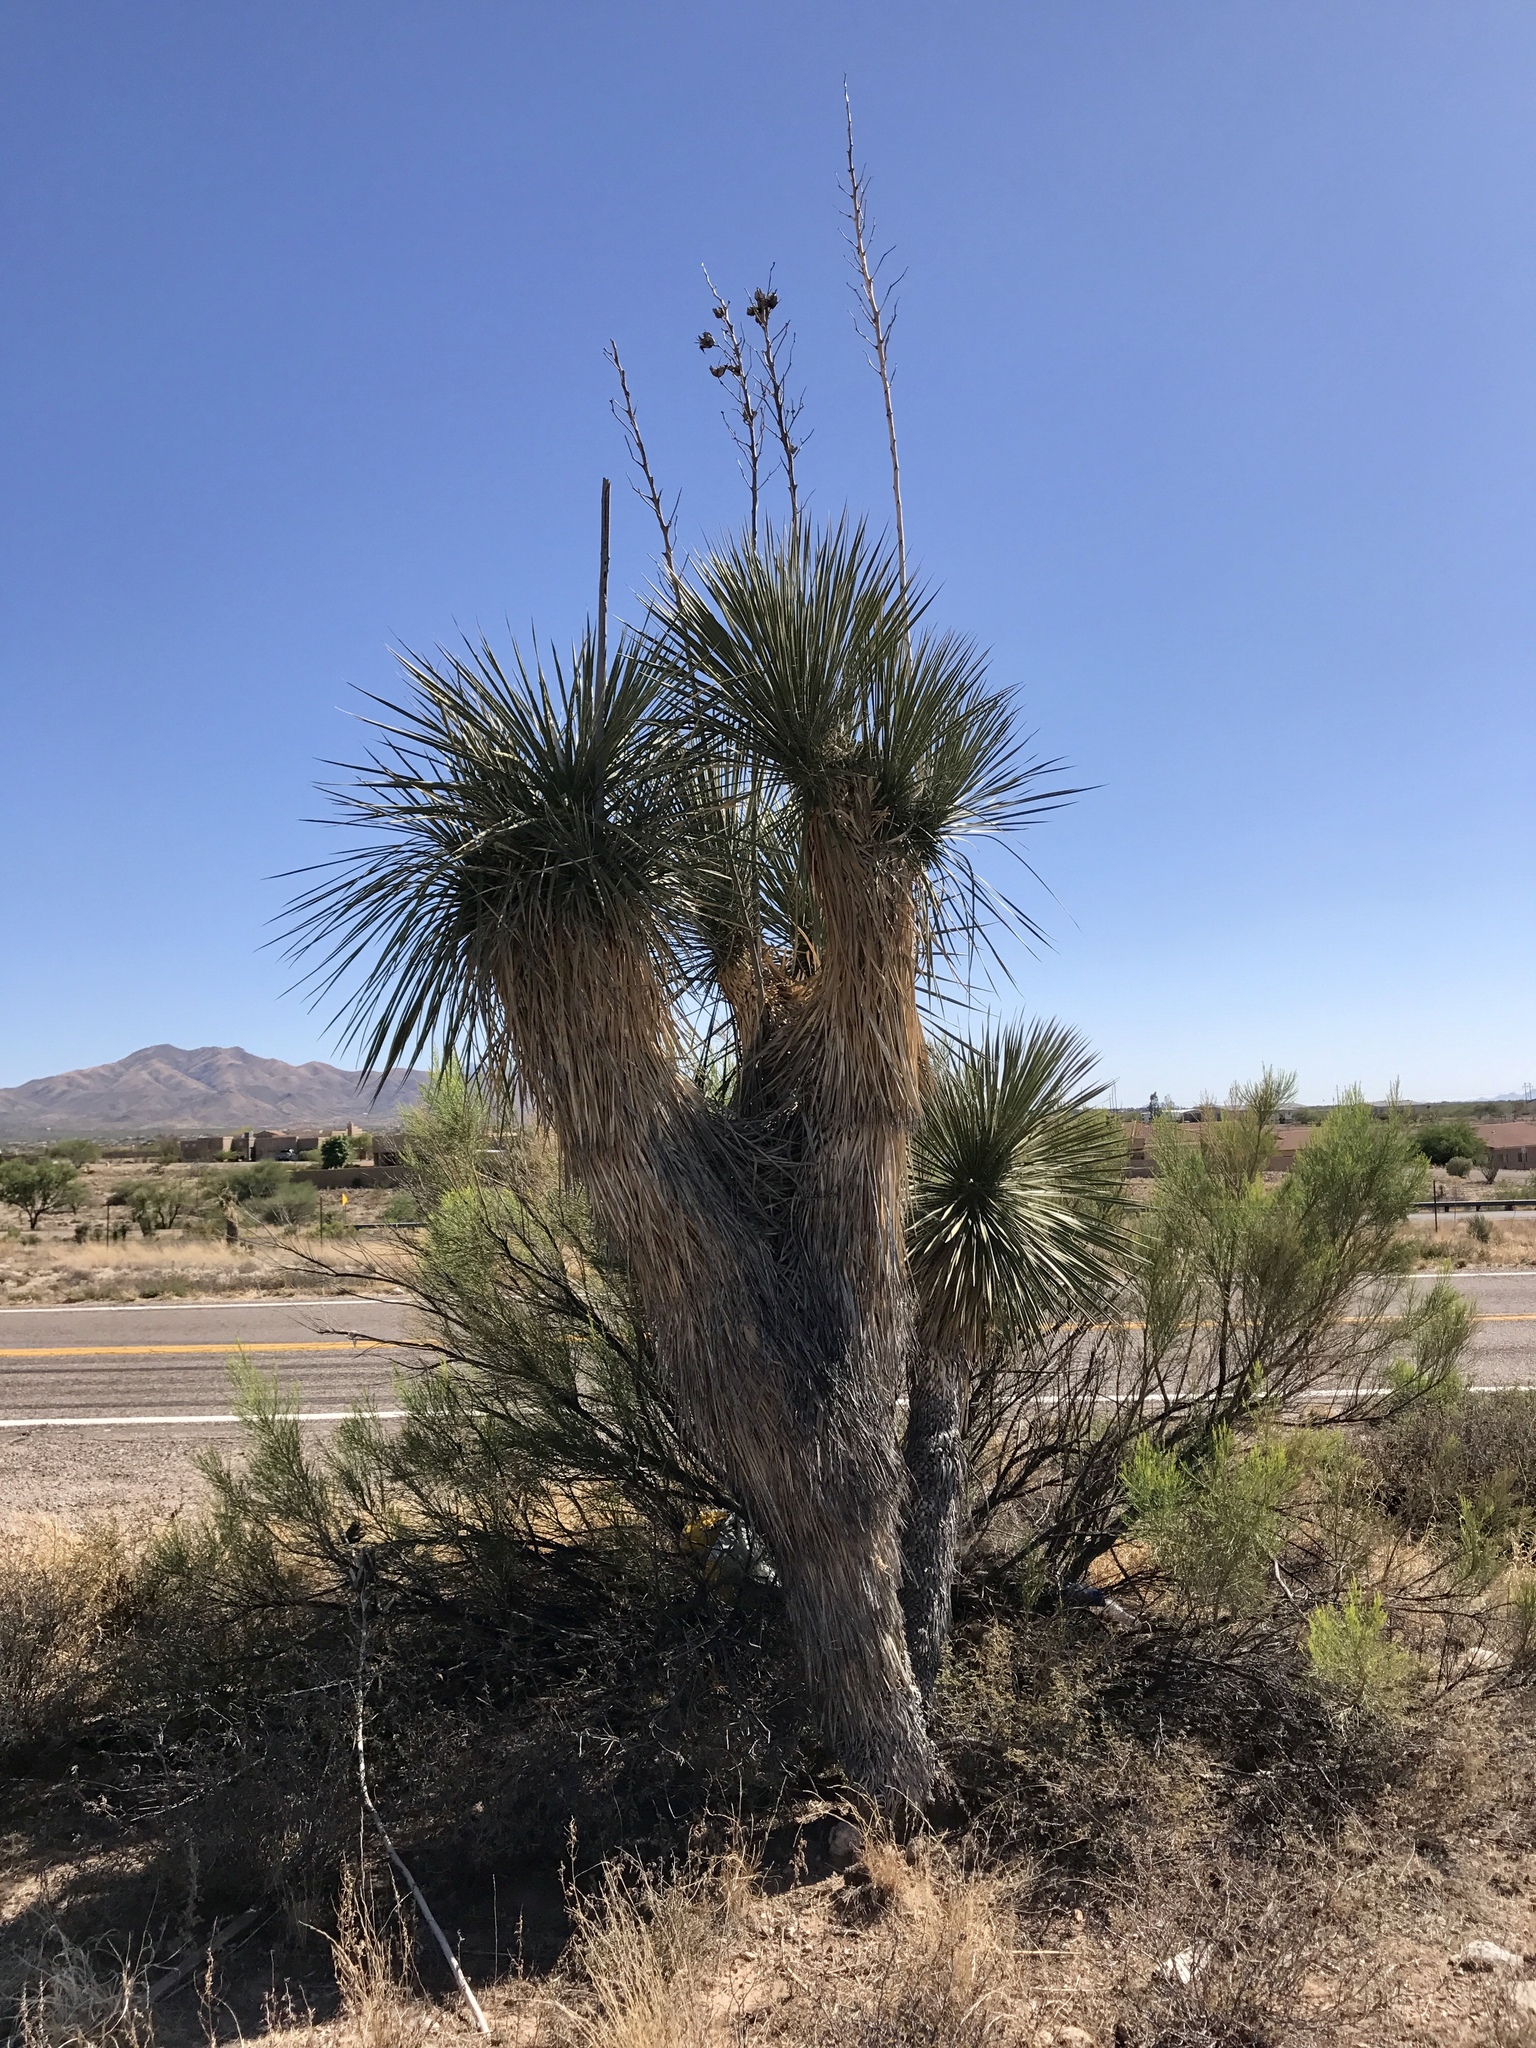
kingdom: Plantae
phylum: Tracheophyta
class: Liliopsida
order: Asparagales
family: Asparagaceae
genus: Yucca
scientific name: Yucca elata
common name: Palmella
